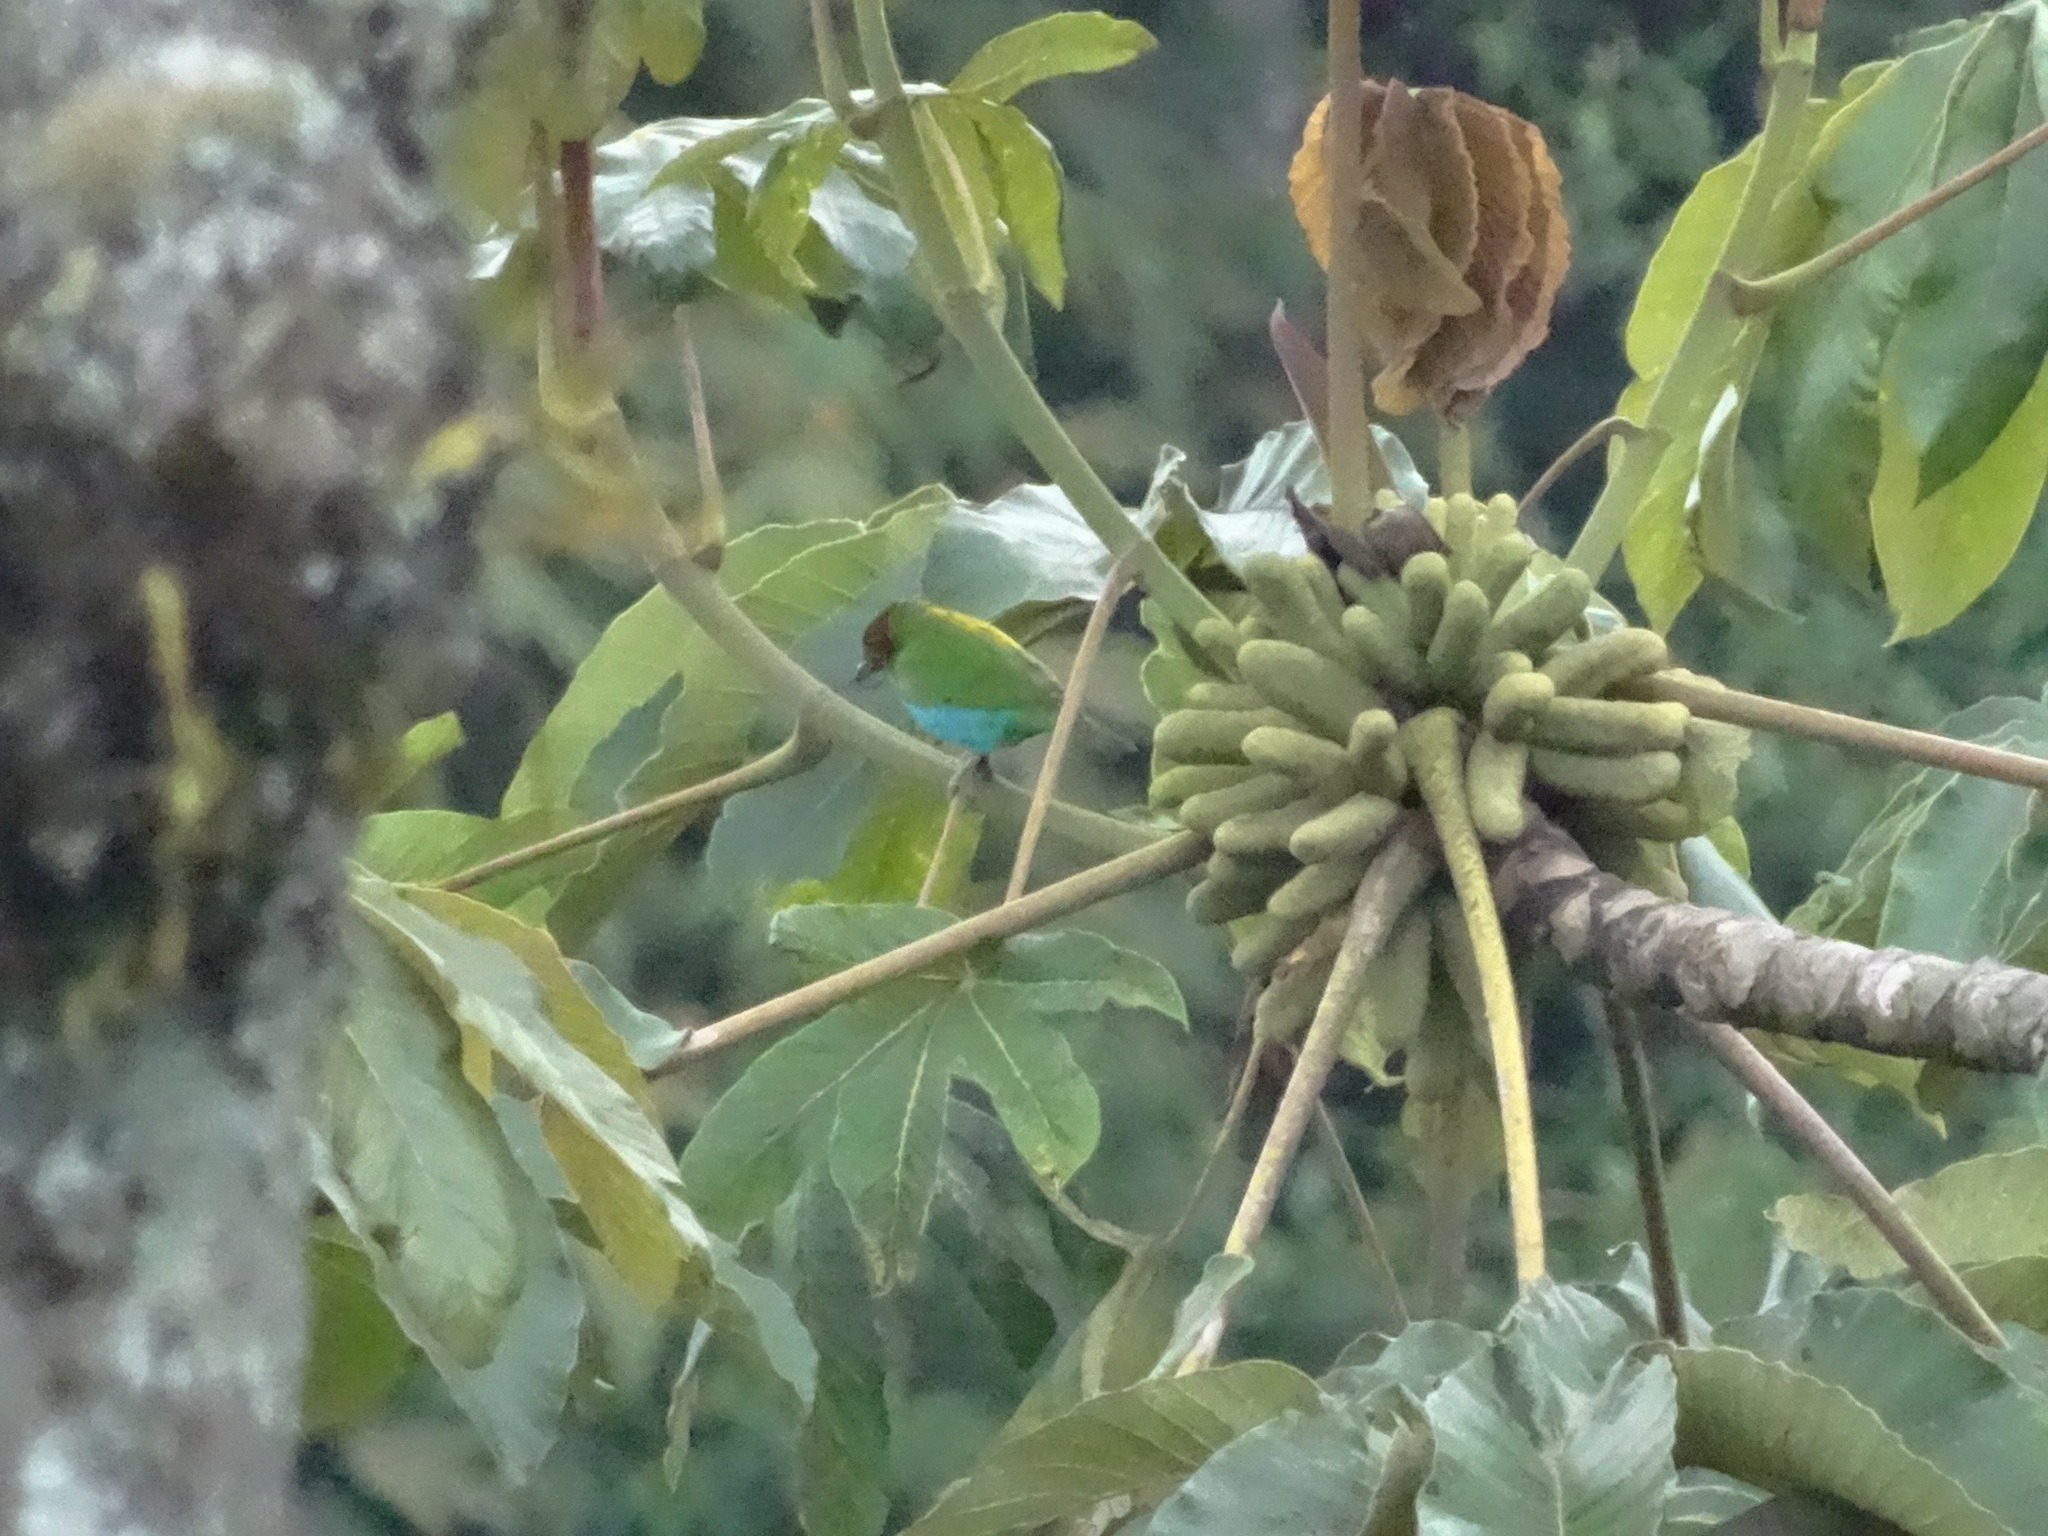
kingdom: Animalia
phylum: Chordata
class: Aves
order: Passeriformes
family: Thraupidae
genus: Tangara
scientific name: Tangara gyrola
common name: Bay-headed tanager
